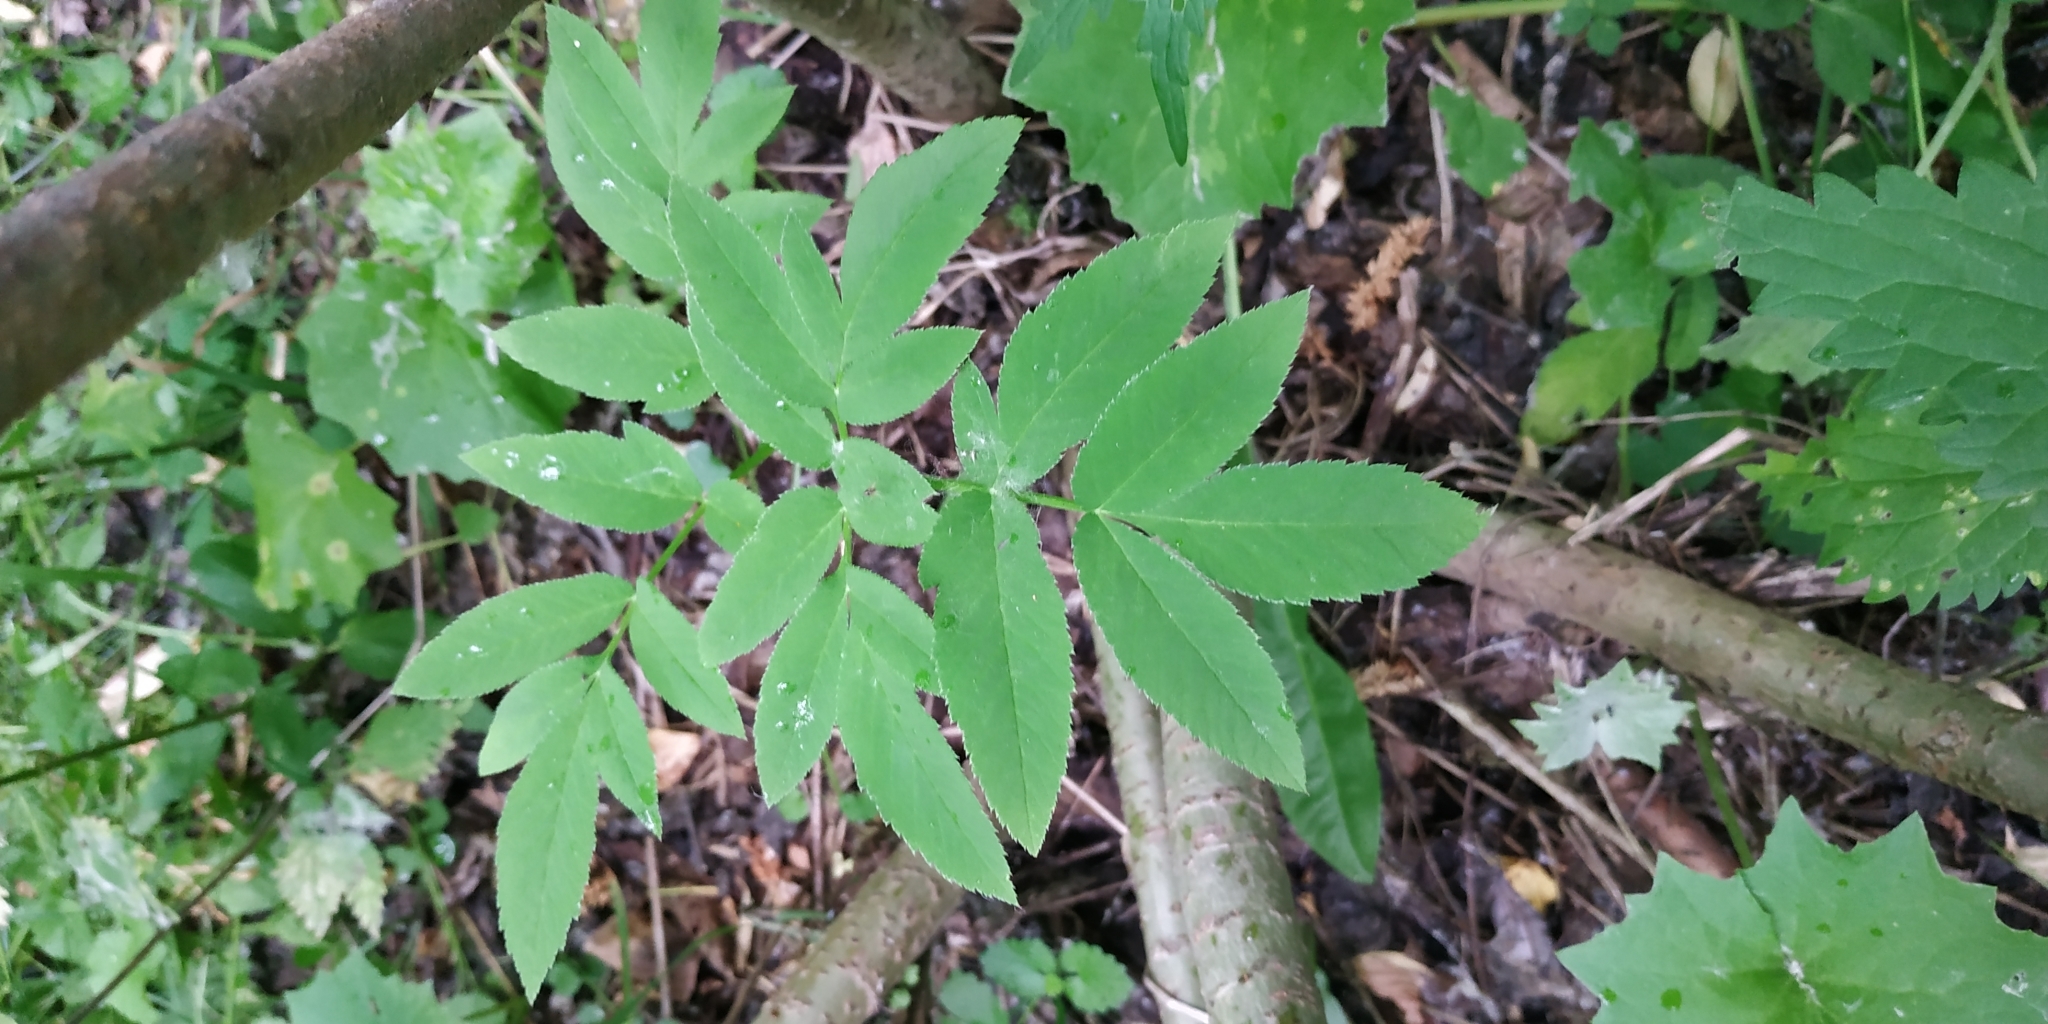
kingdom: Plantae
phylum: Tracheophyta
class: Magnoliopsida
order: Apiales
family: Apiaceae
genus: Angelica
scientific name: Angelica sylvestris
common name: Wild angelica
